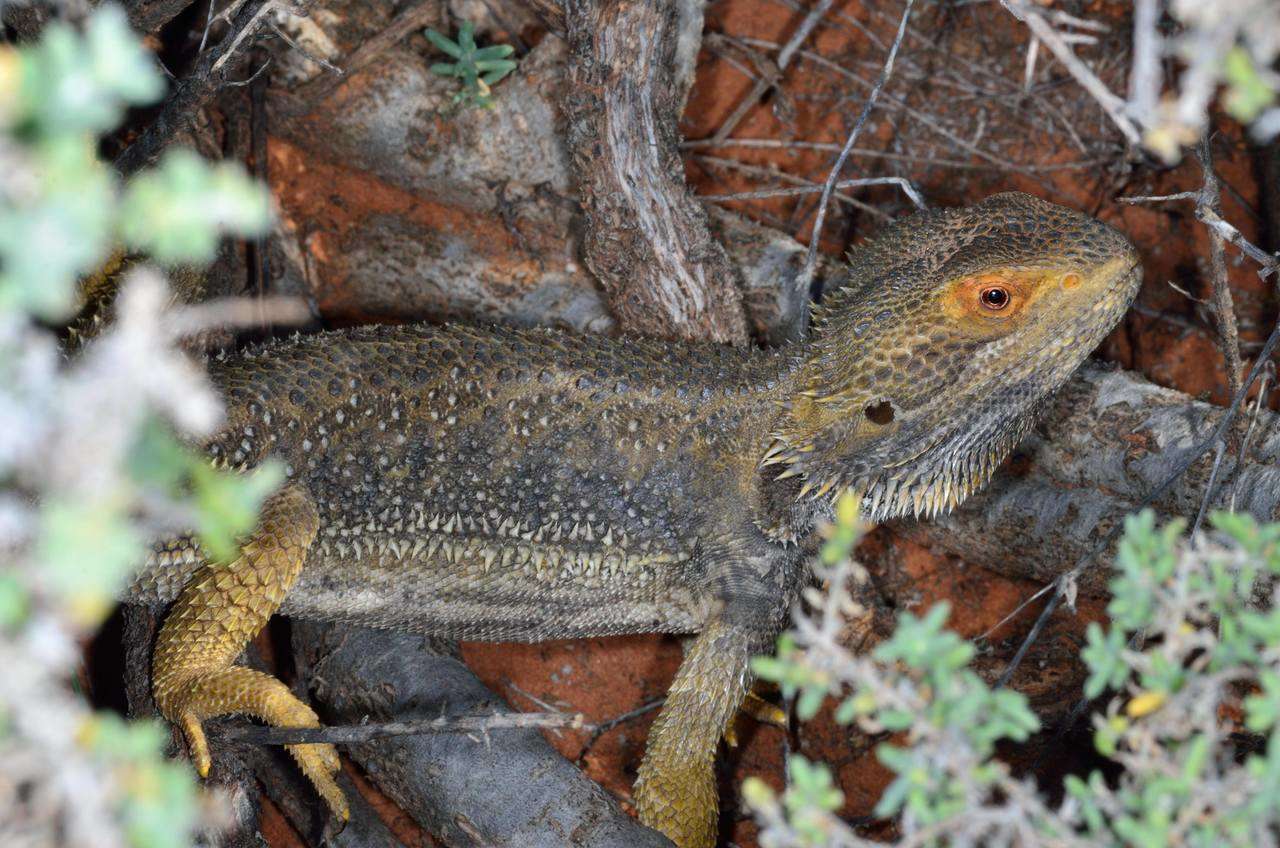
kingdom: Animalia
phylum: Chordata
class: Squamata
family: Agamidae
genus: Pogona
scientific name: Pogona vitticeps
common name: Central bearded dragon
